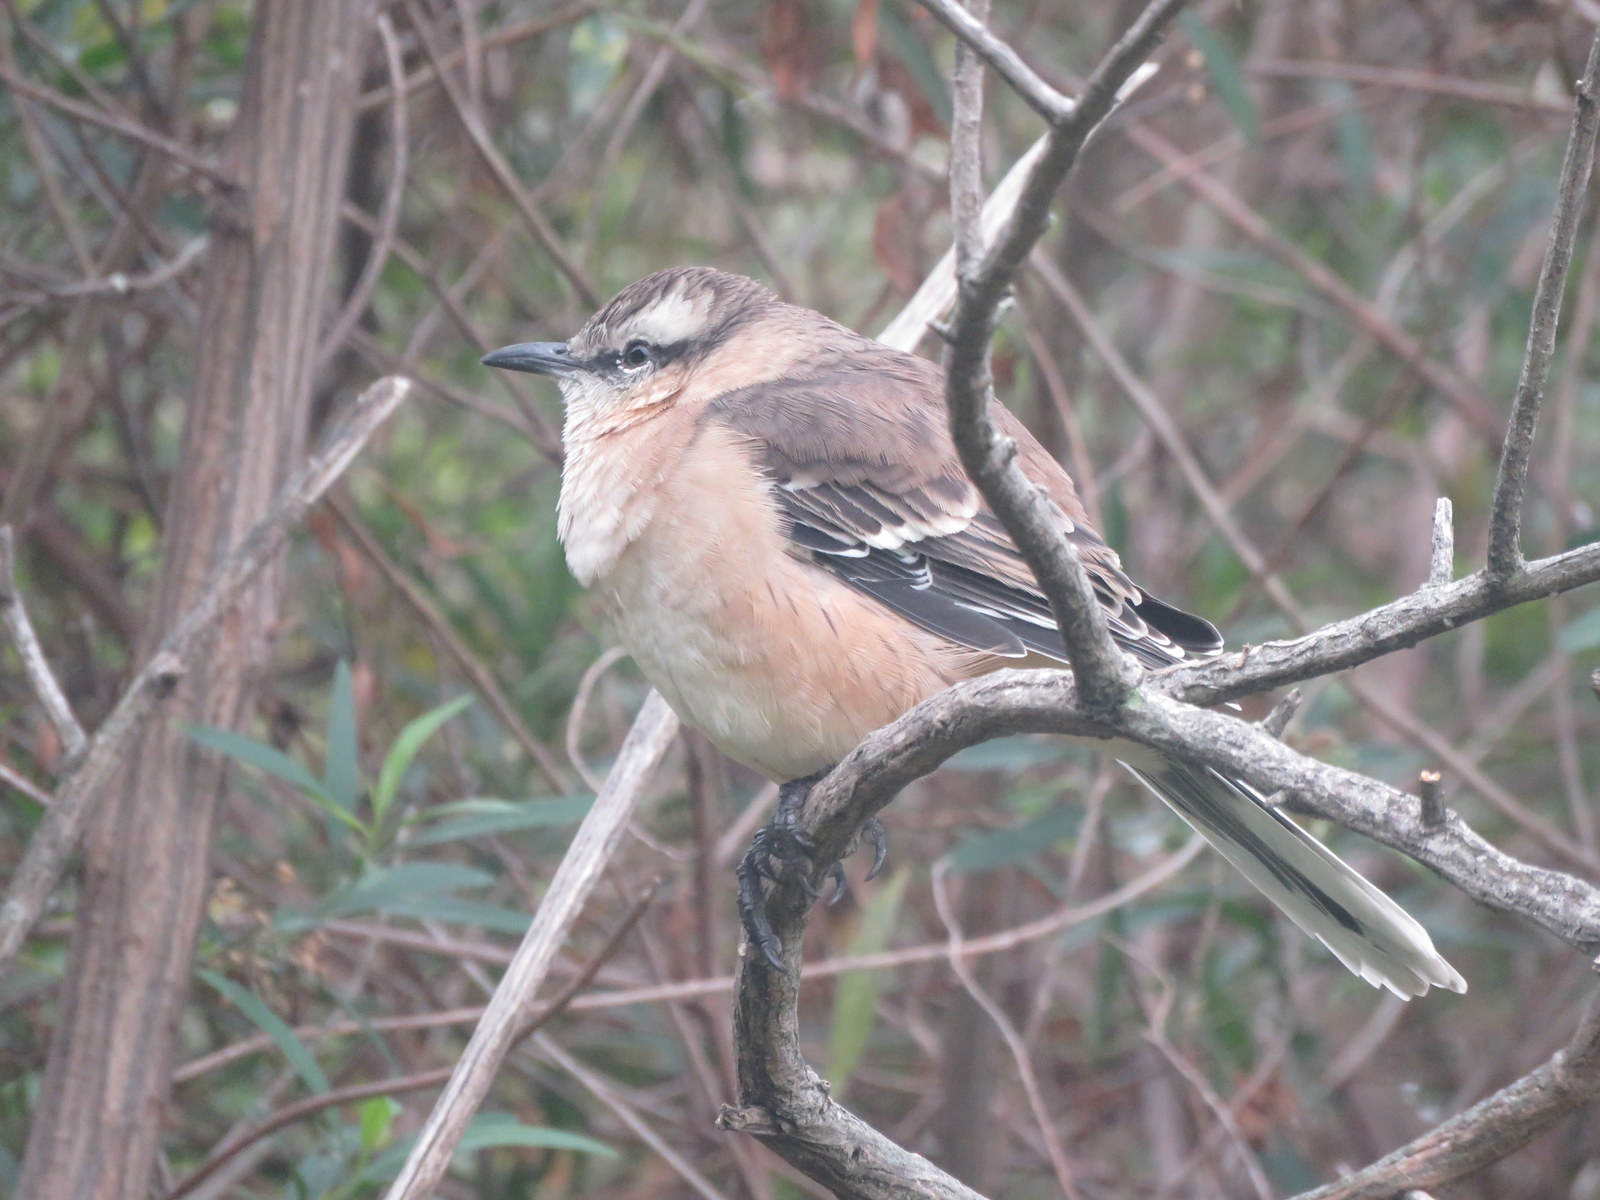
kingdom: Animalia
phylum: Chordata
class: Aves
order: Passeriformes
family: Mimidae
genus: Mimus
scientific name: Mimus saturninus
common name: Chalk-browed mockingbird
